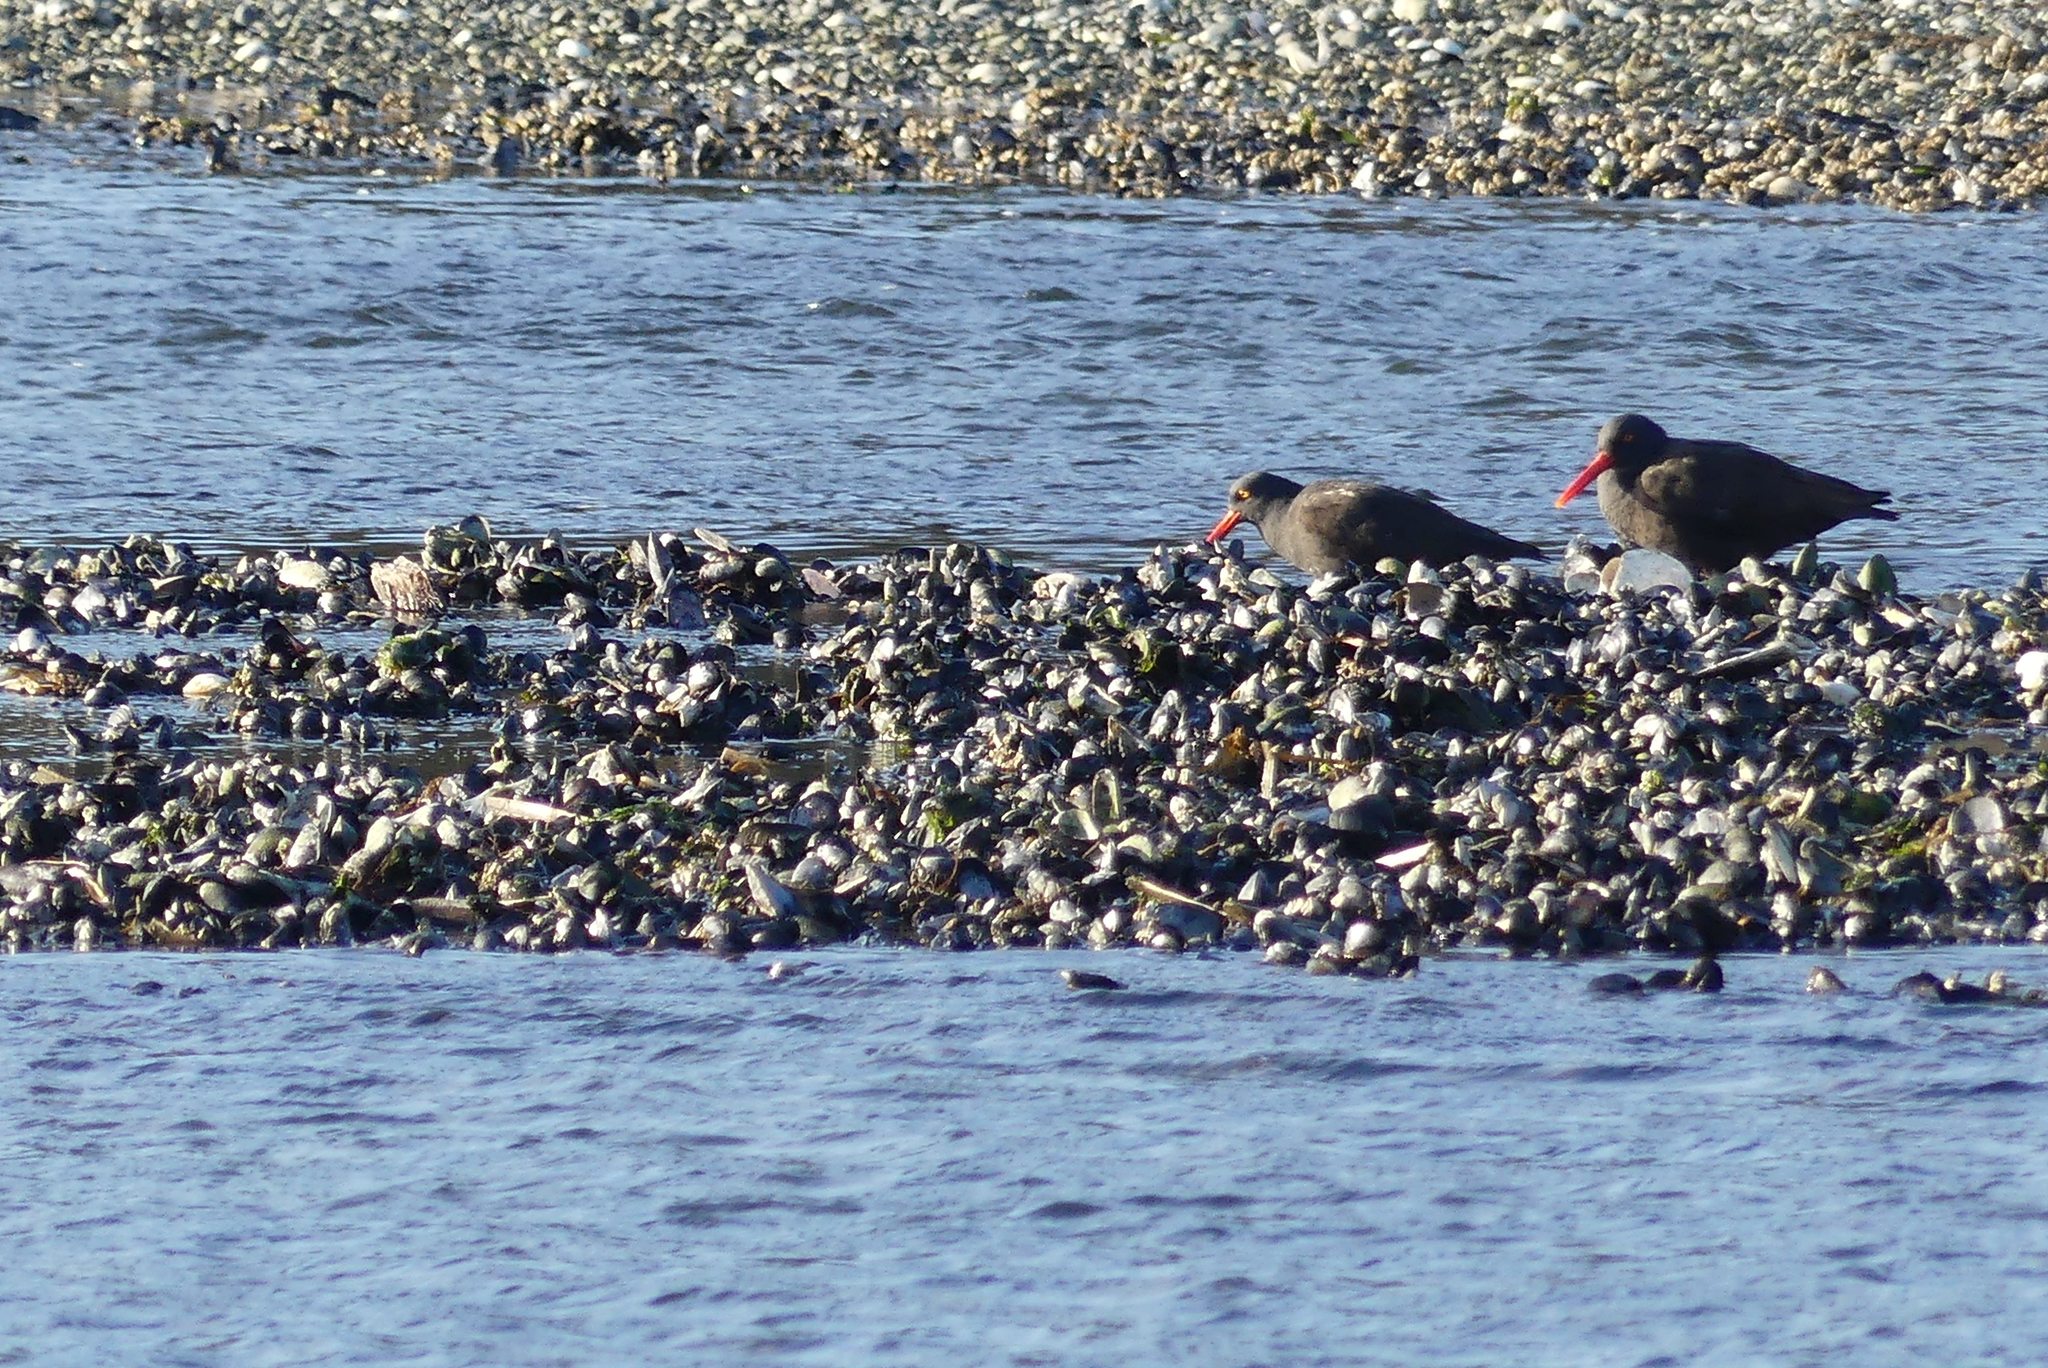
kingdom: Animalia
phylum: Chordata
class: Aves
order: Charadriiformes
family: Haematopodidae
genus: Haematopus
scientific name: Haematopus bachmani
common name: Black oystercatcher
